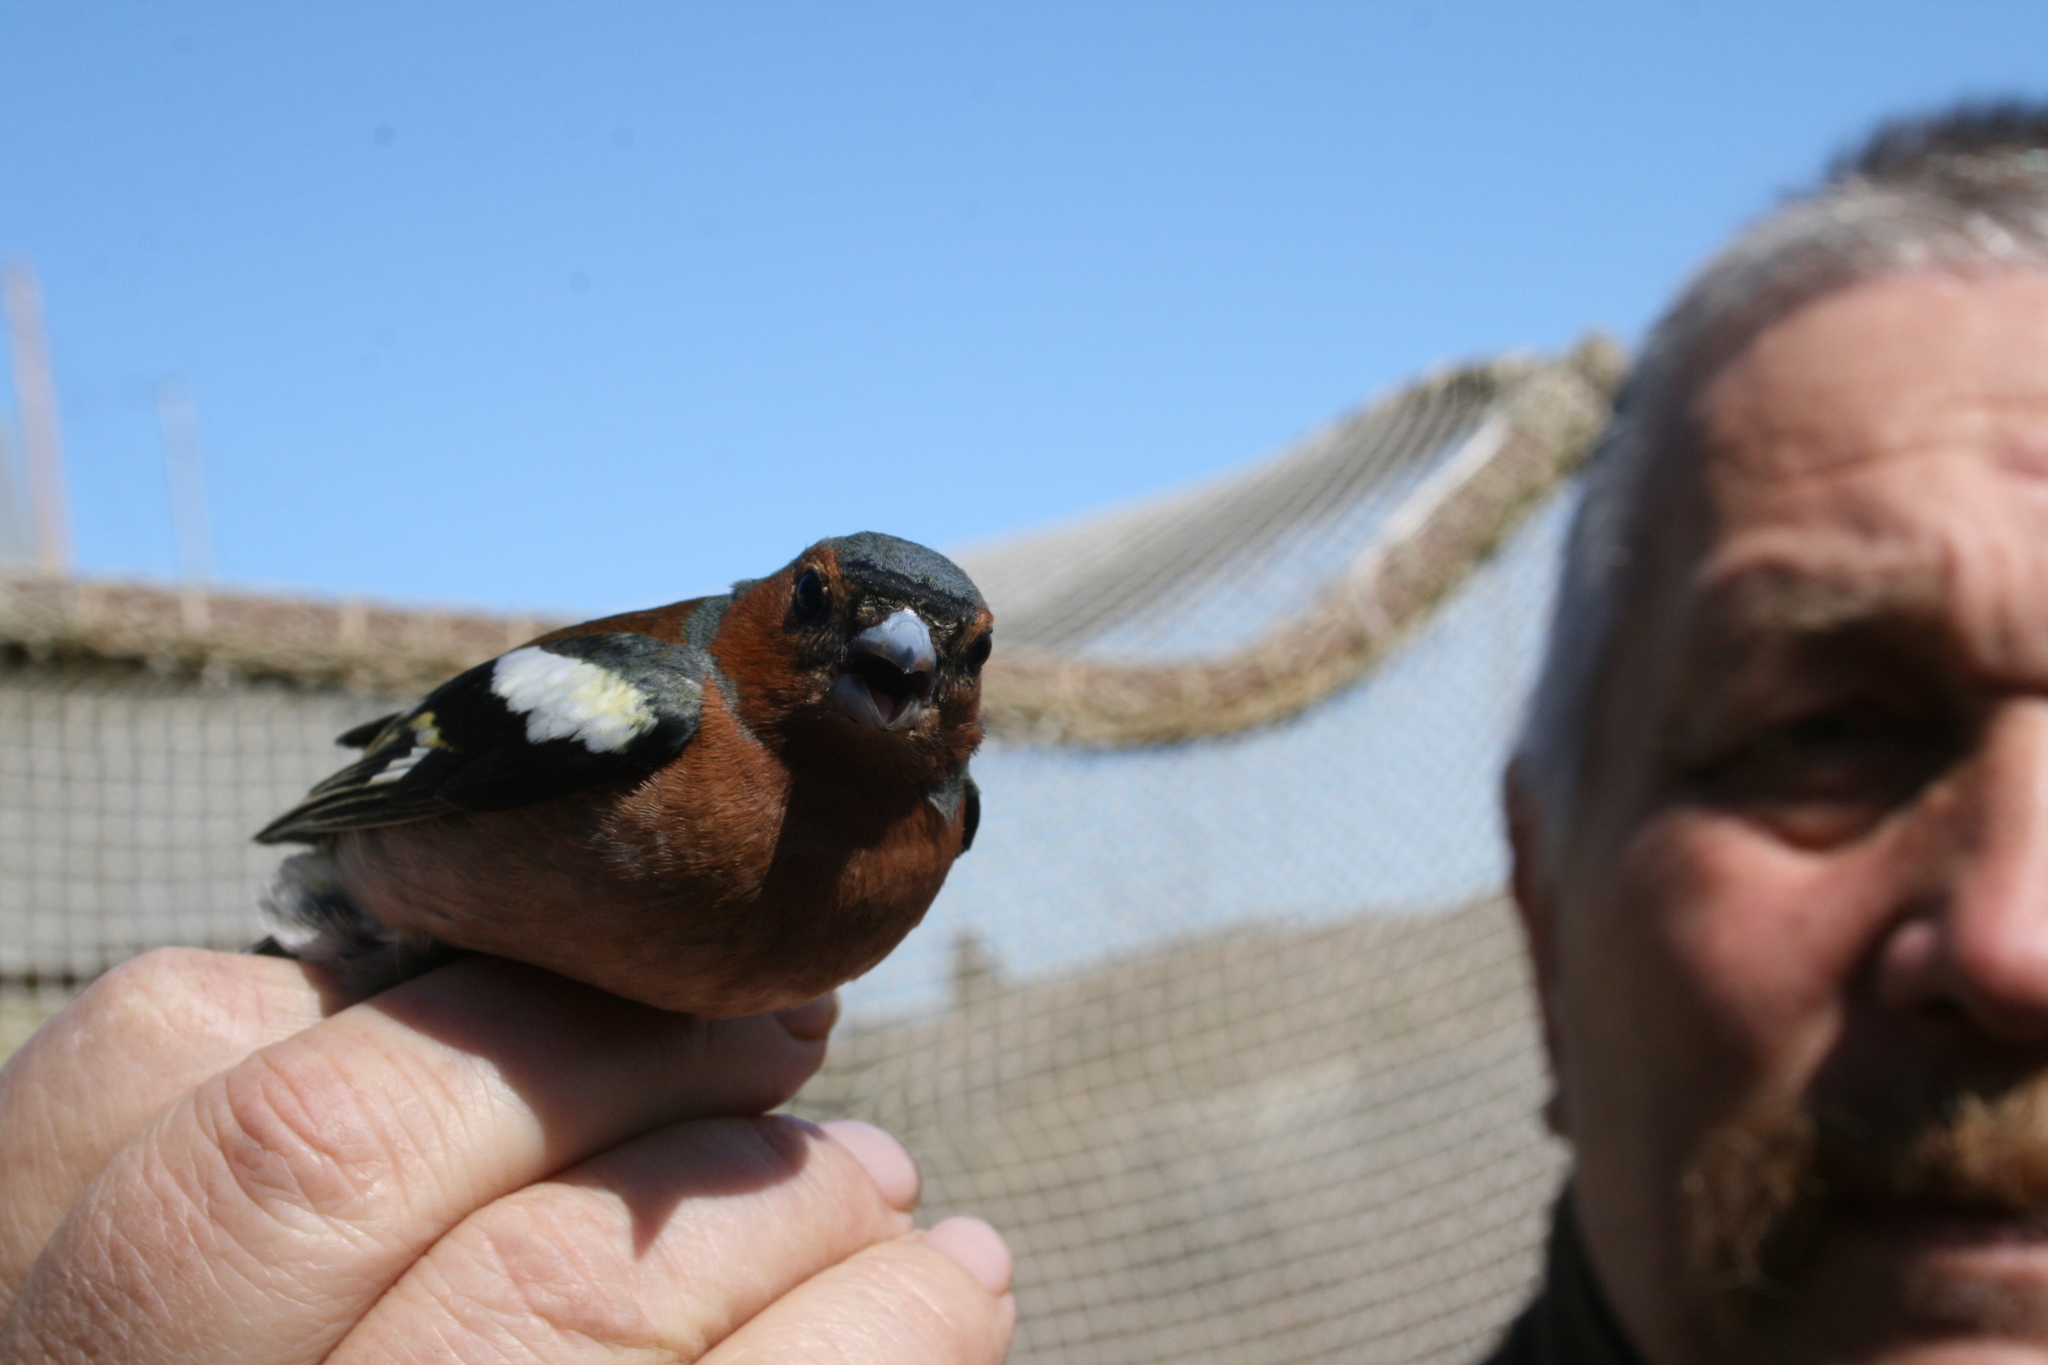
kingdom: Animalia
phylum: Chordata
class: Aves
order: Passeriformes
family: Fringillidae
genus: Fringilla
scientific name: Fringilla coelebs
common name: Common chaffinch
